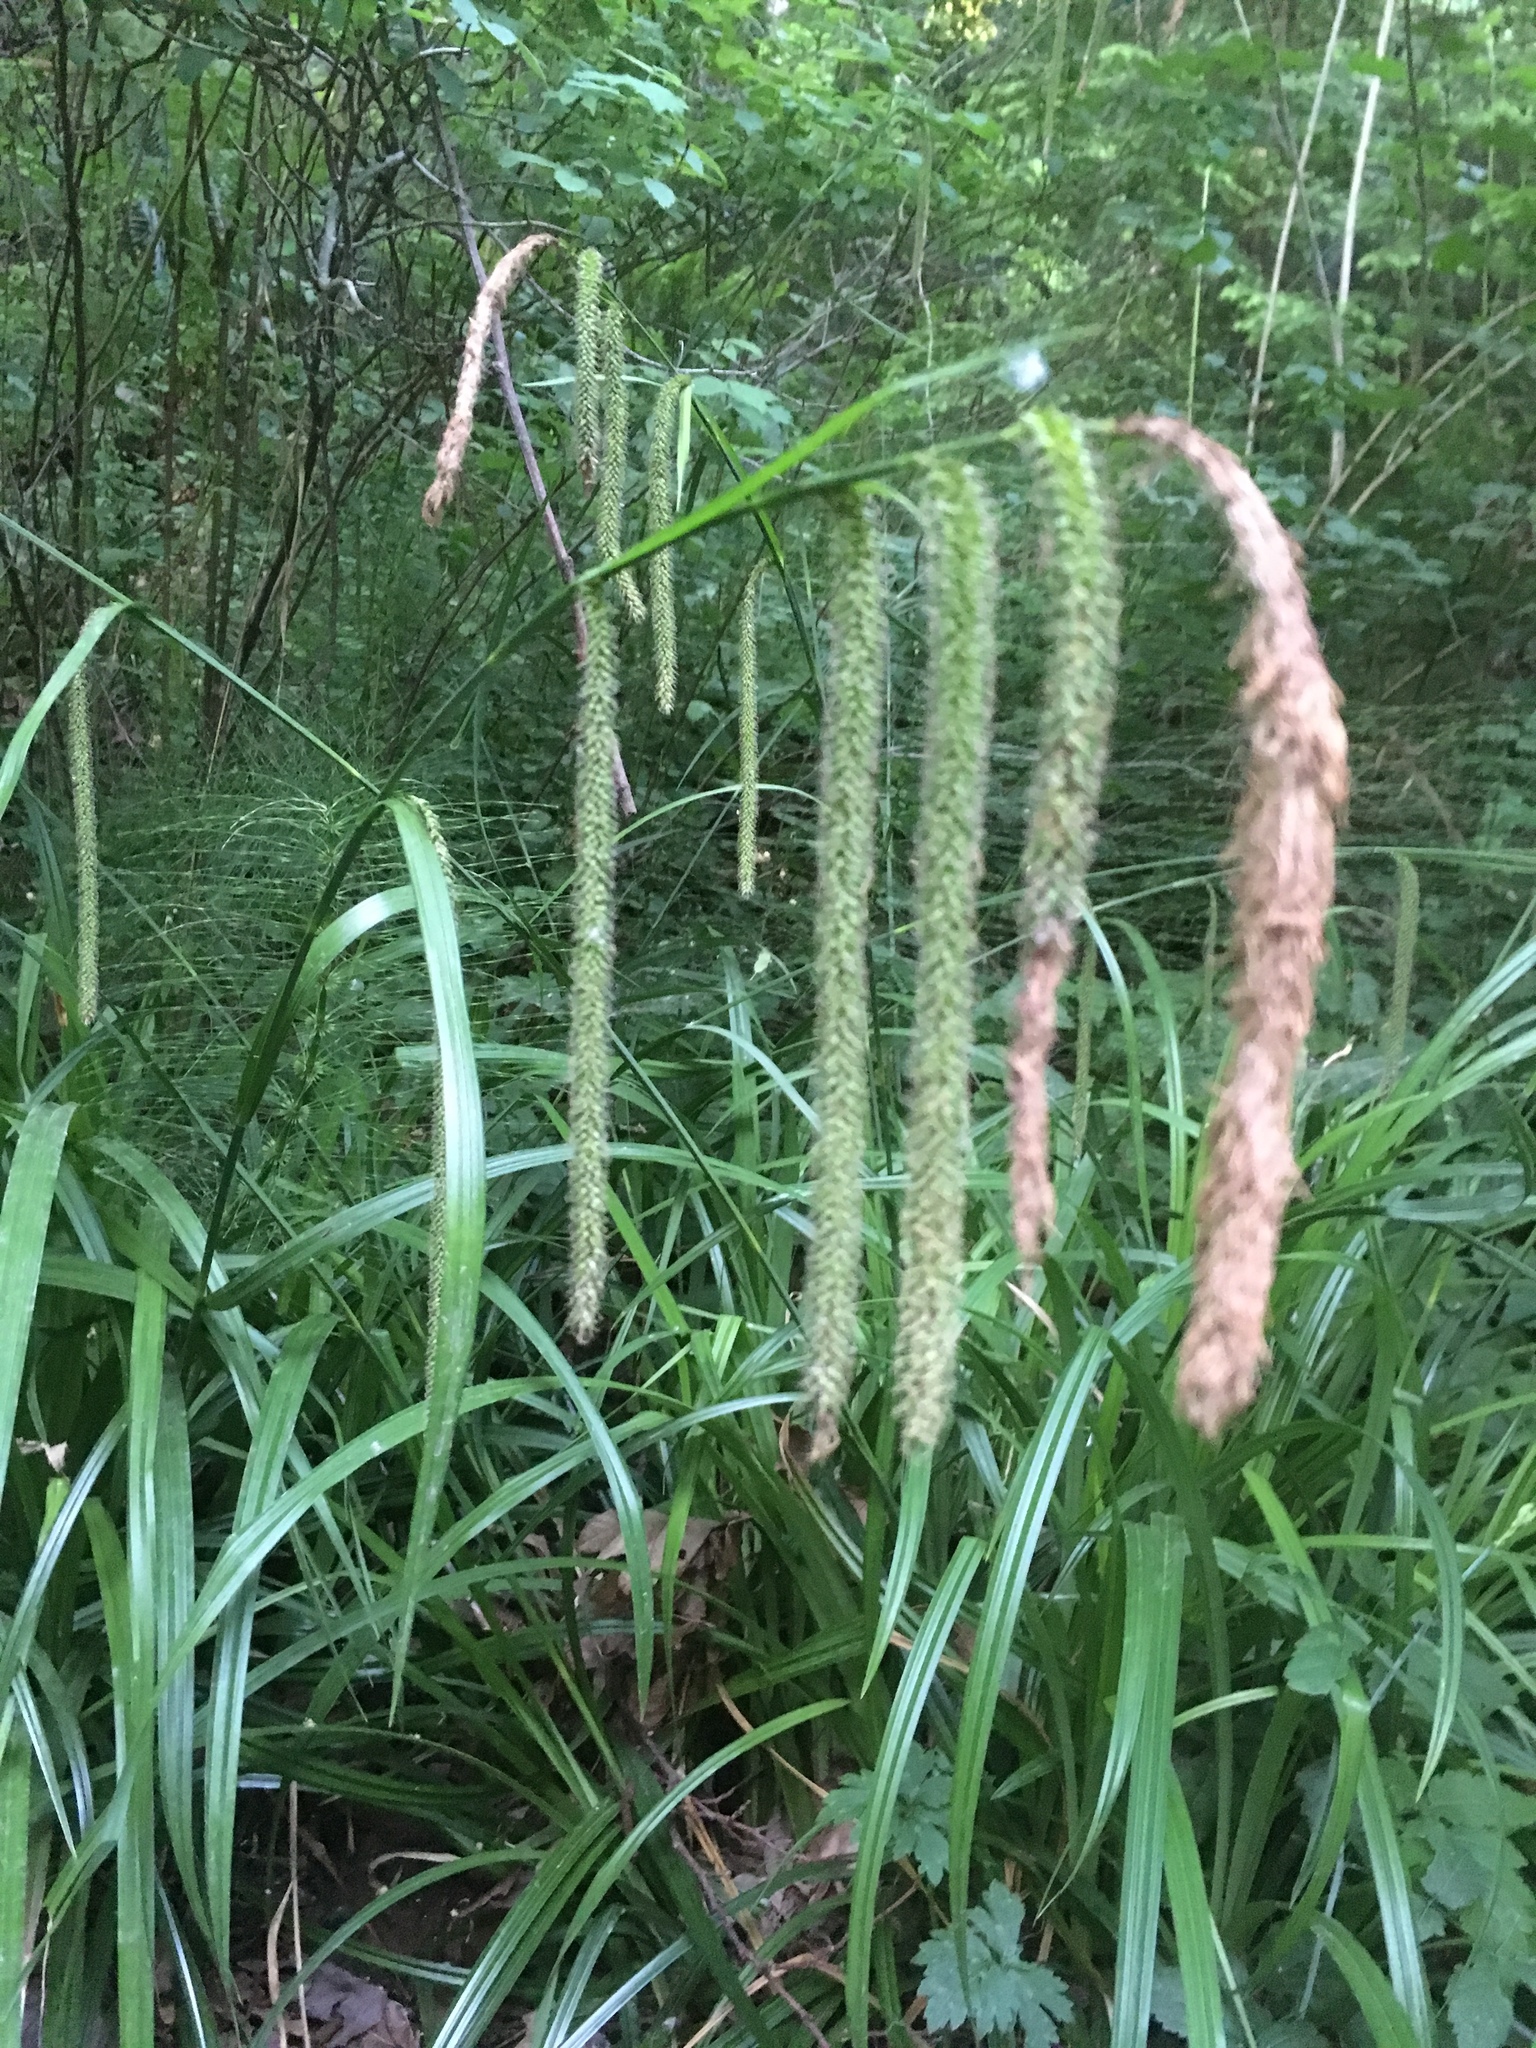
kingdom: Plantae
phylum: Tracheophyta
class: Liliopsida
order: Poales
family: Cyperaceae
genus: Carex
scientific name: Carex pendula
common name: Pendulous sedge
